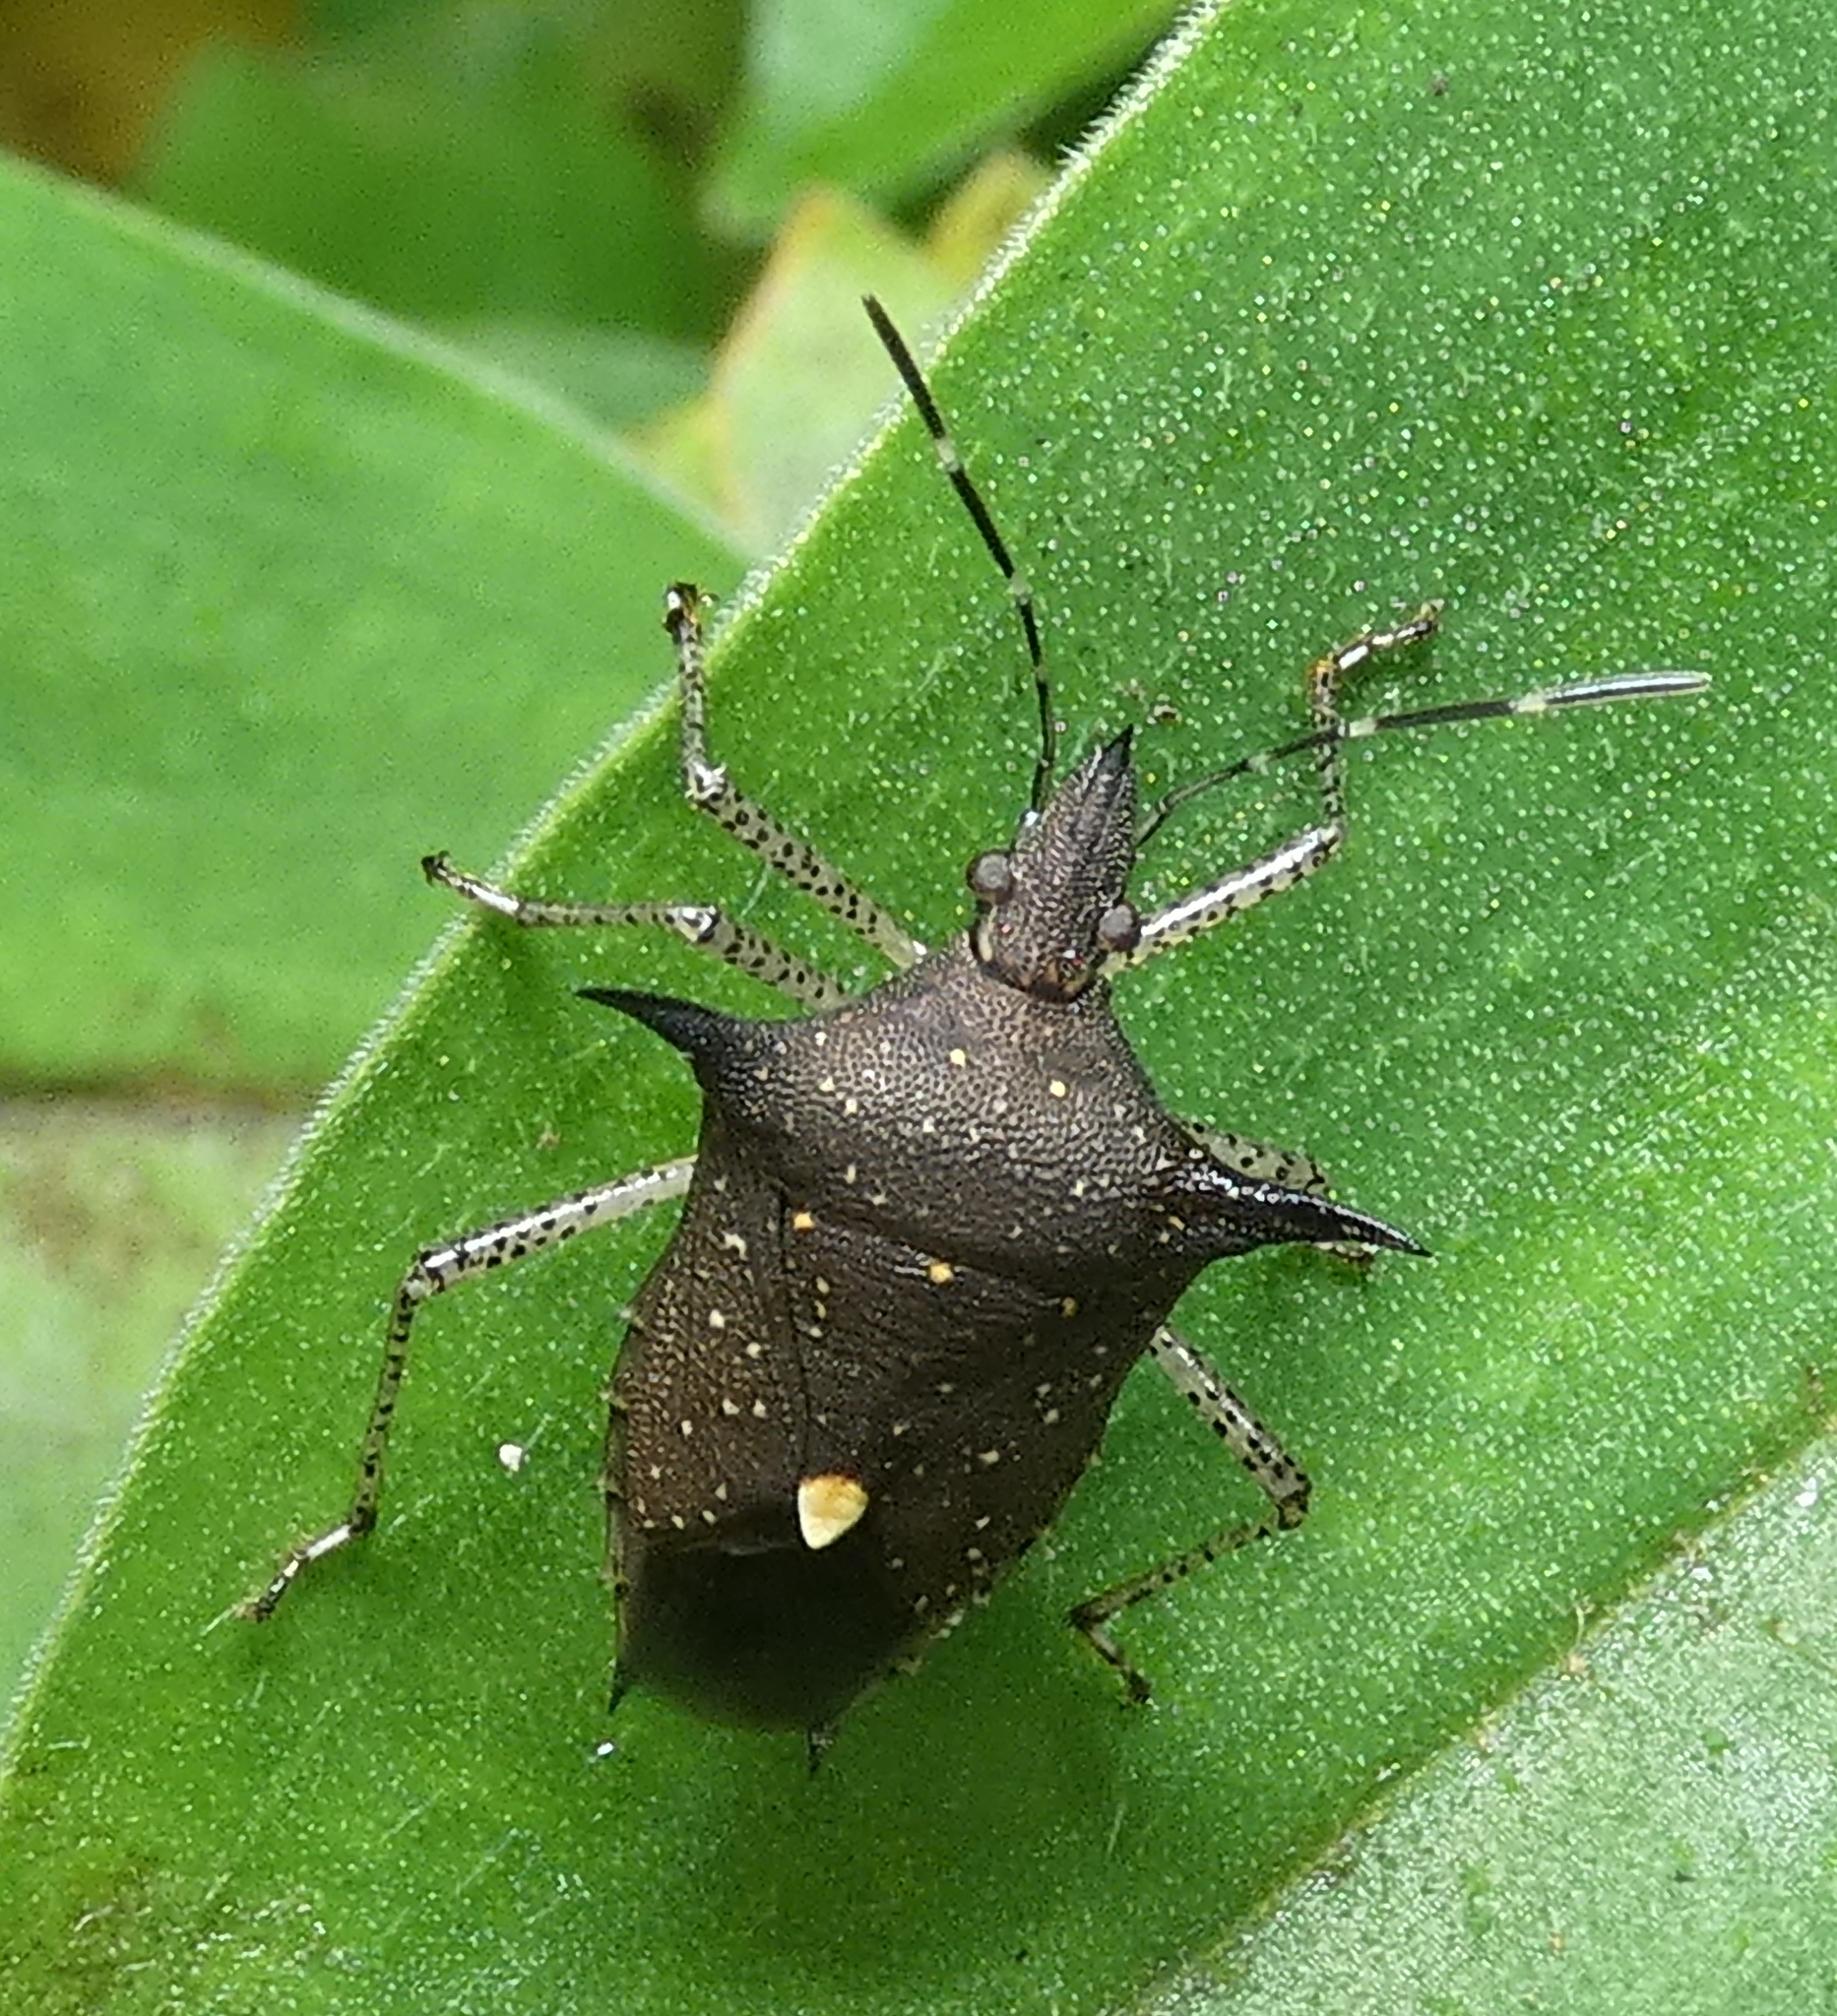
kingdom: Animalia
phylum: Arthropoda
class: Insecta
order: Hemiptera
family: Pentatomidae
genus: Proxys
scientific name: Proxys albopunctulatus
